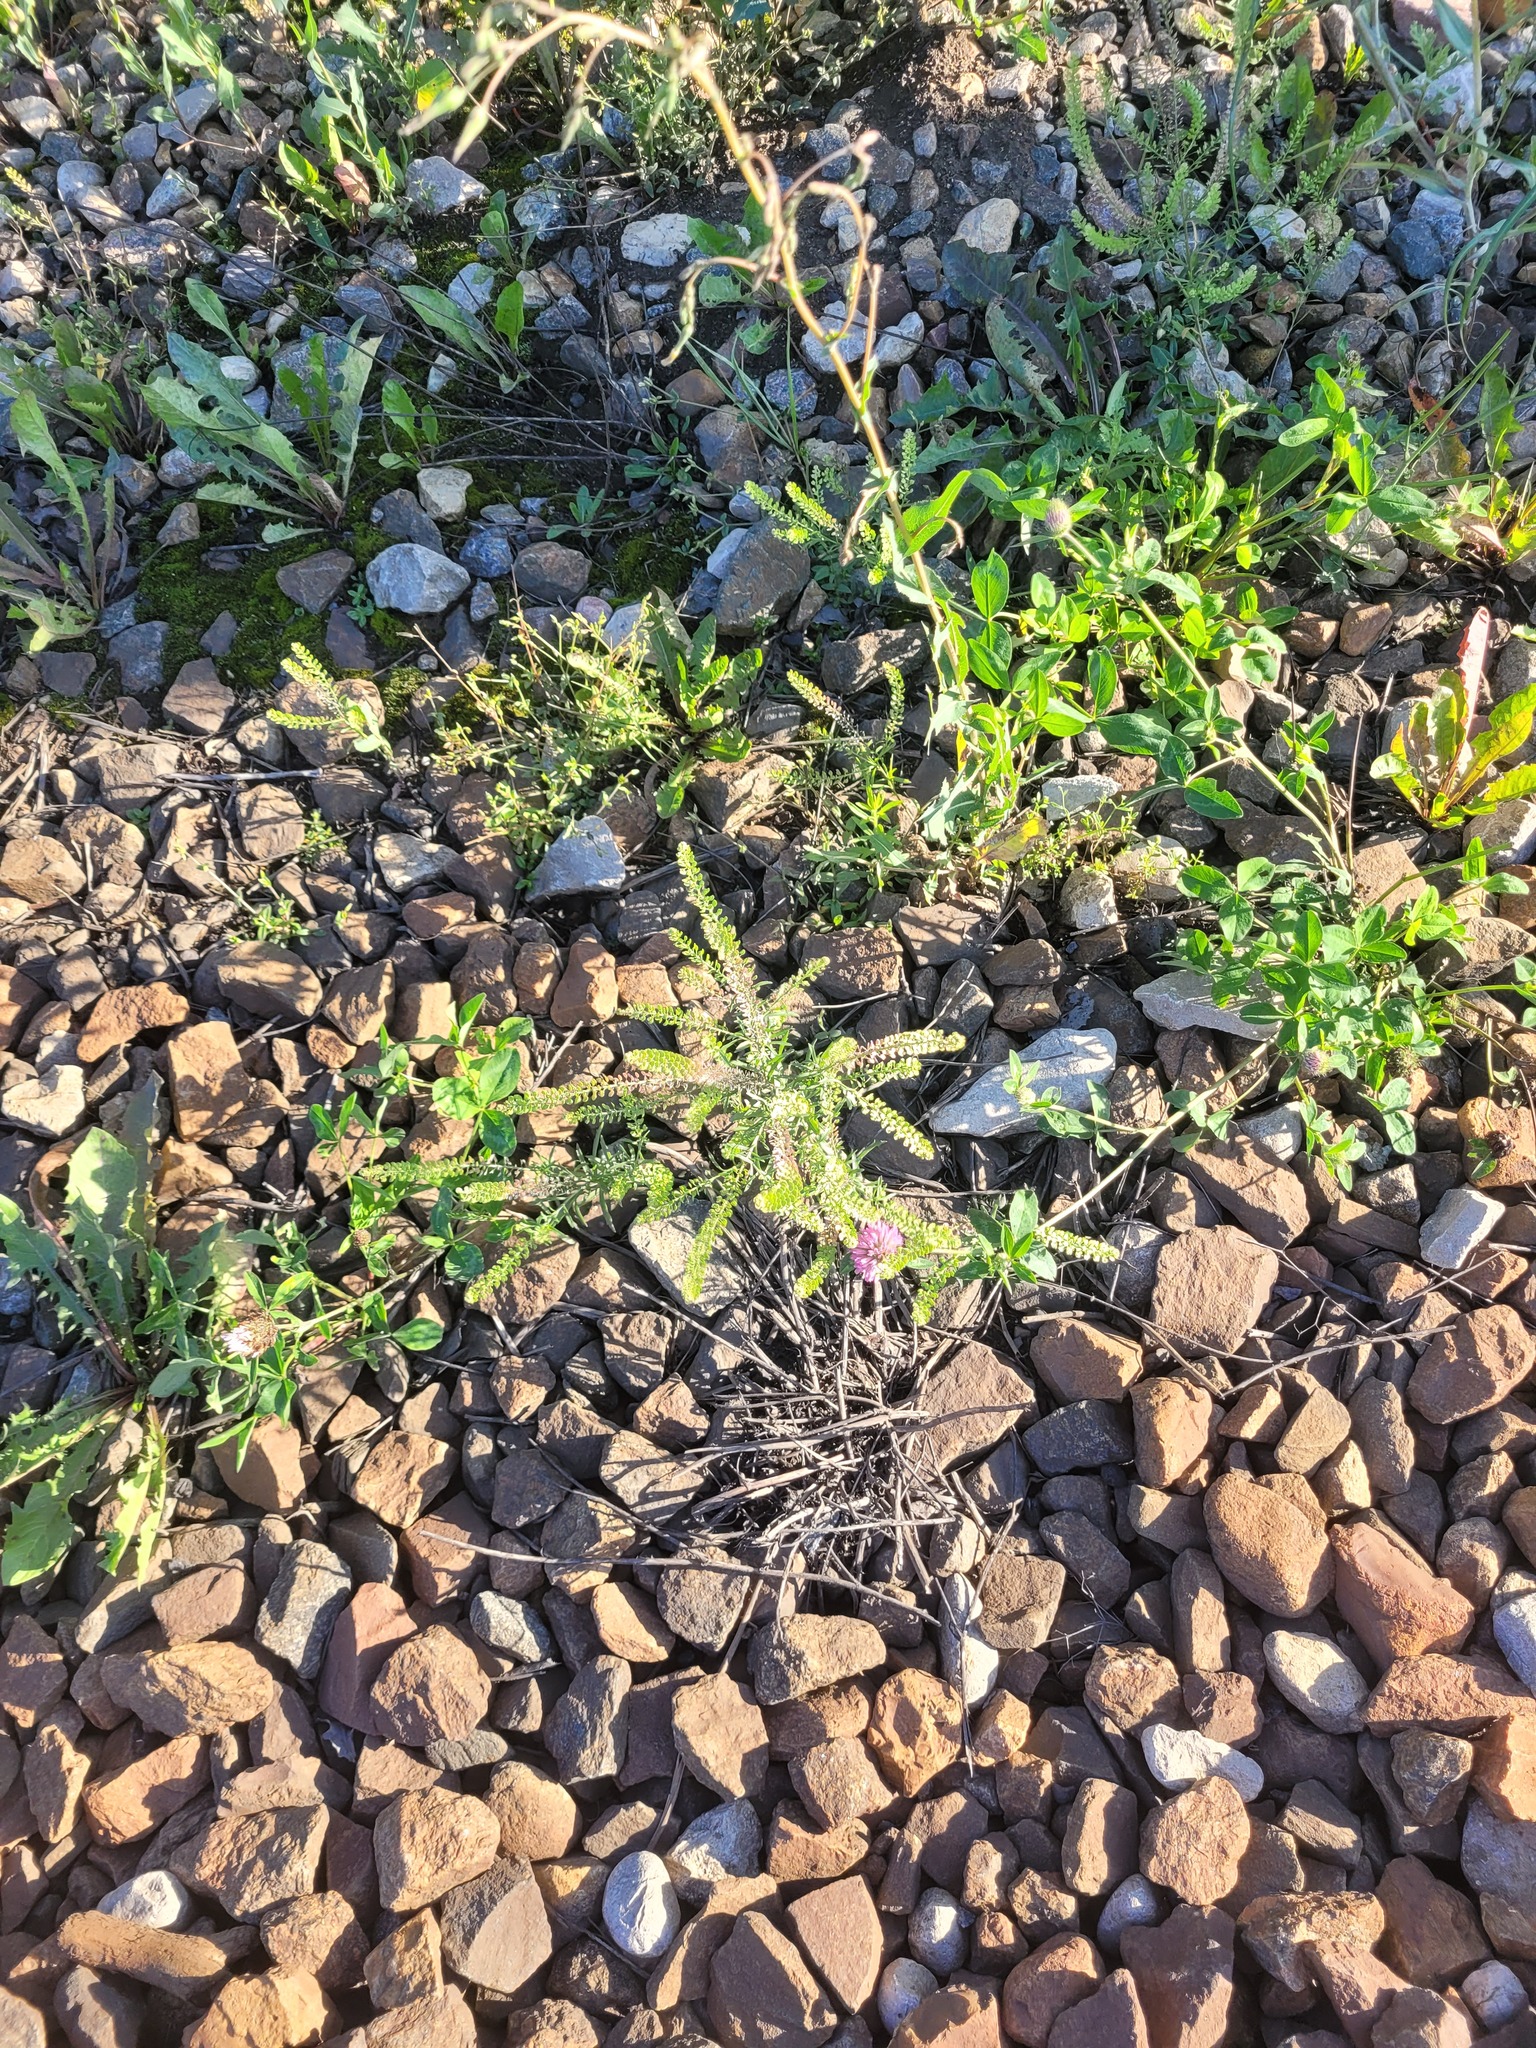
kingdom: Plantae
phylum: Tracheophyta
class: Magnoliopsida
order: Brassicales
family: Brassicaceae
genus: Lepidium
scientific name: Lepidium densiflorum
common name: Miner's pepperwort
